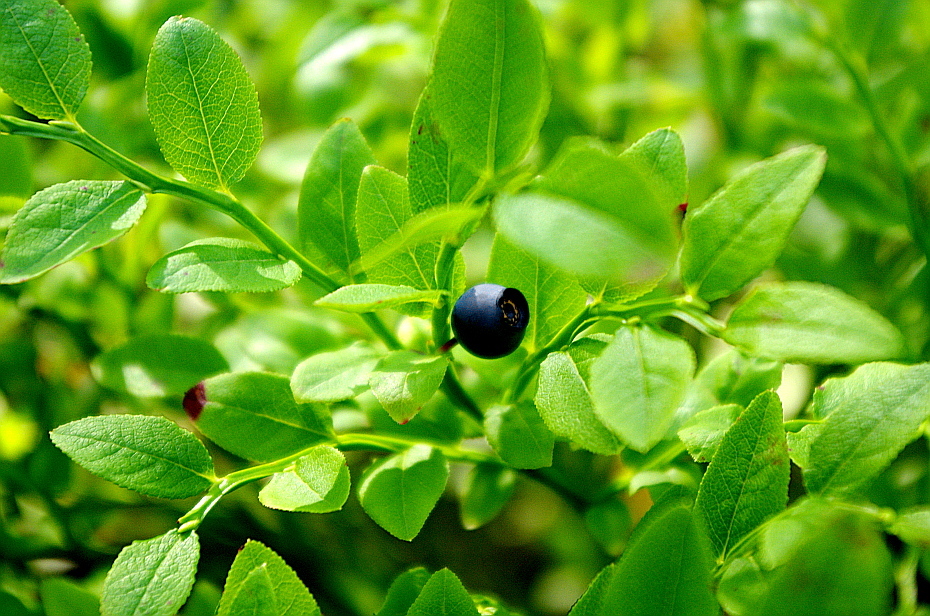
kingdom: Plantae
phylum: Tracheophyta
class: Magnoliopsida
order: Ericales
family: Ericaceae
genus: Vaccinium
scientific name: Vaccinium myrtillus
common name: Bilberry
